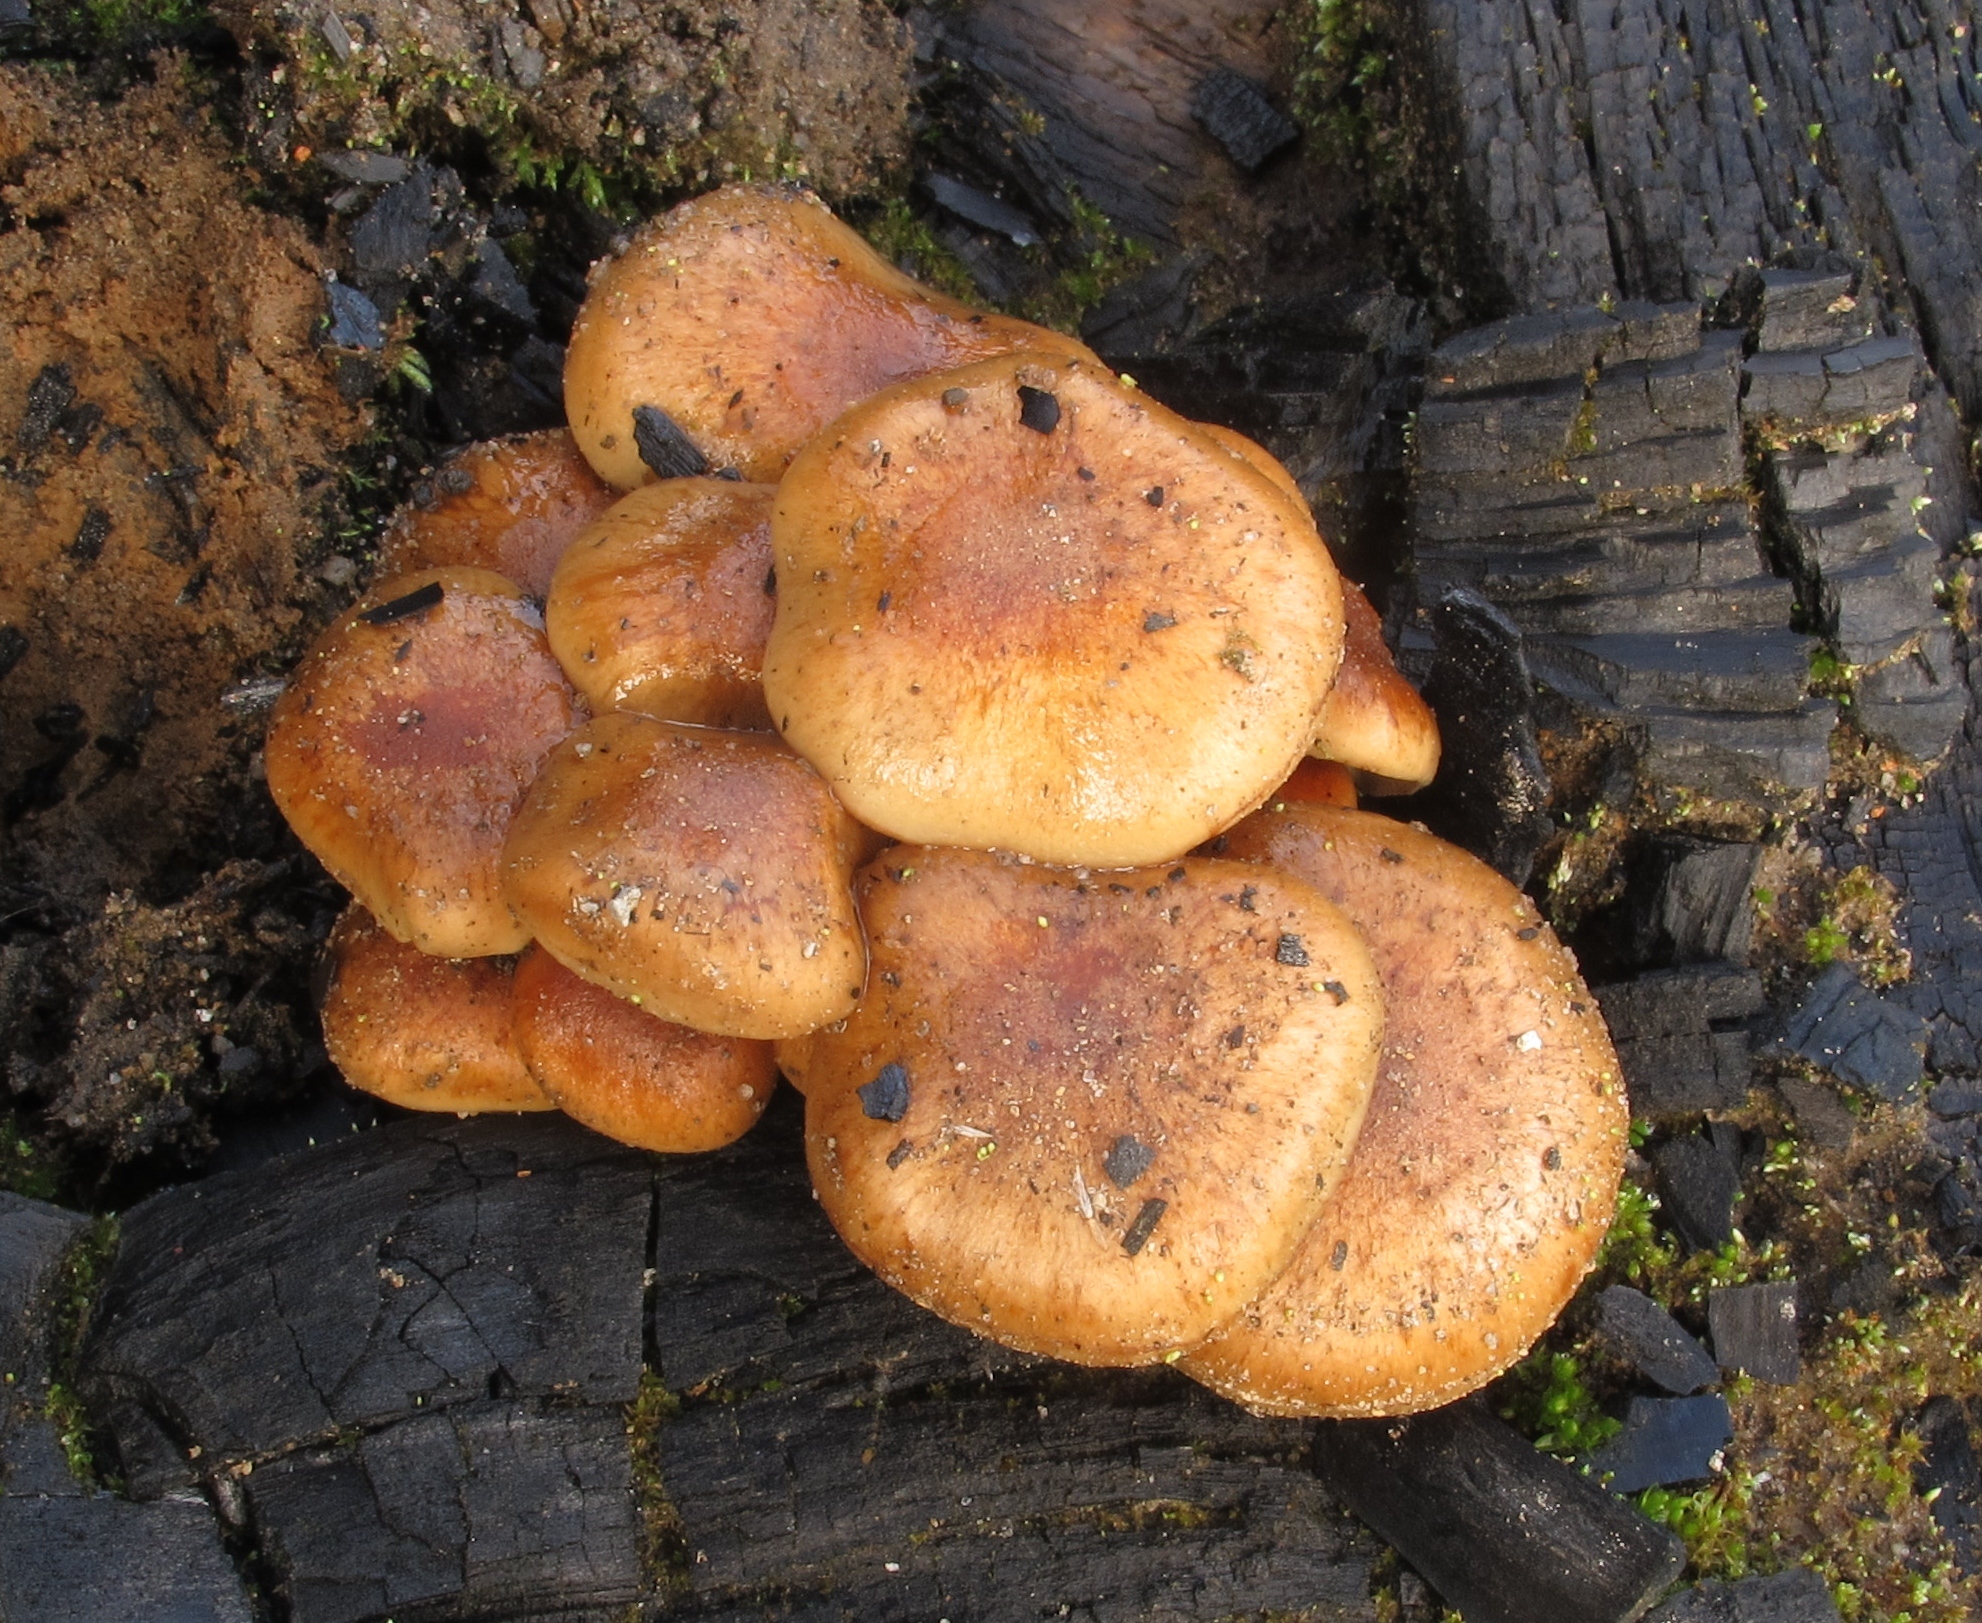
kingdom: Fungi
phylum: Basidiomycota
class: Agaricomycetes
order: Agaricales
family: Strophariaceae
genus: Pholiota
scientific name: Pholiota carbonaria
